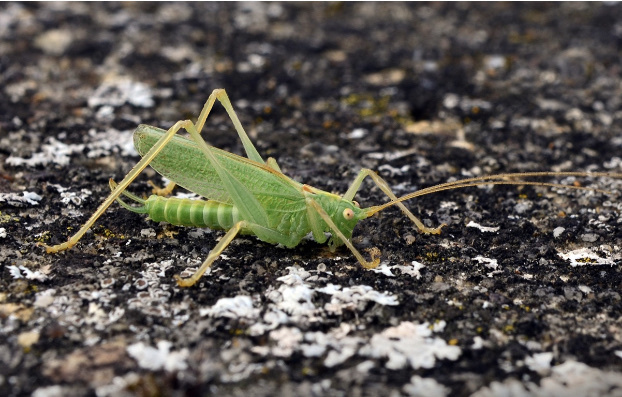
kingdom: Animalia
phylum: Arthropoda
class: Insecta
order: Orthoptera
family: Tettigoniidae
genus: Meconema
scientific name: Meconema thalassinum
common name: Oak bush-cricket
